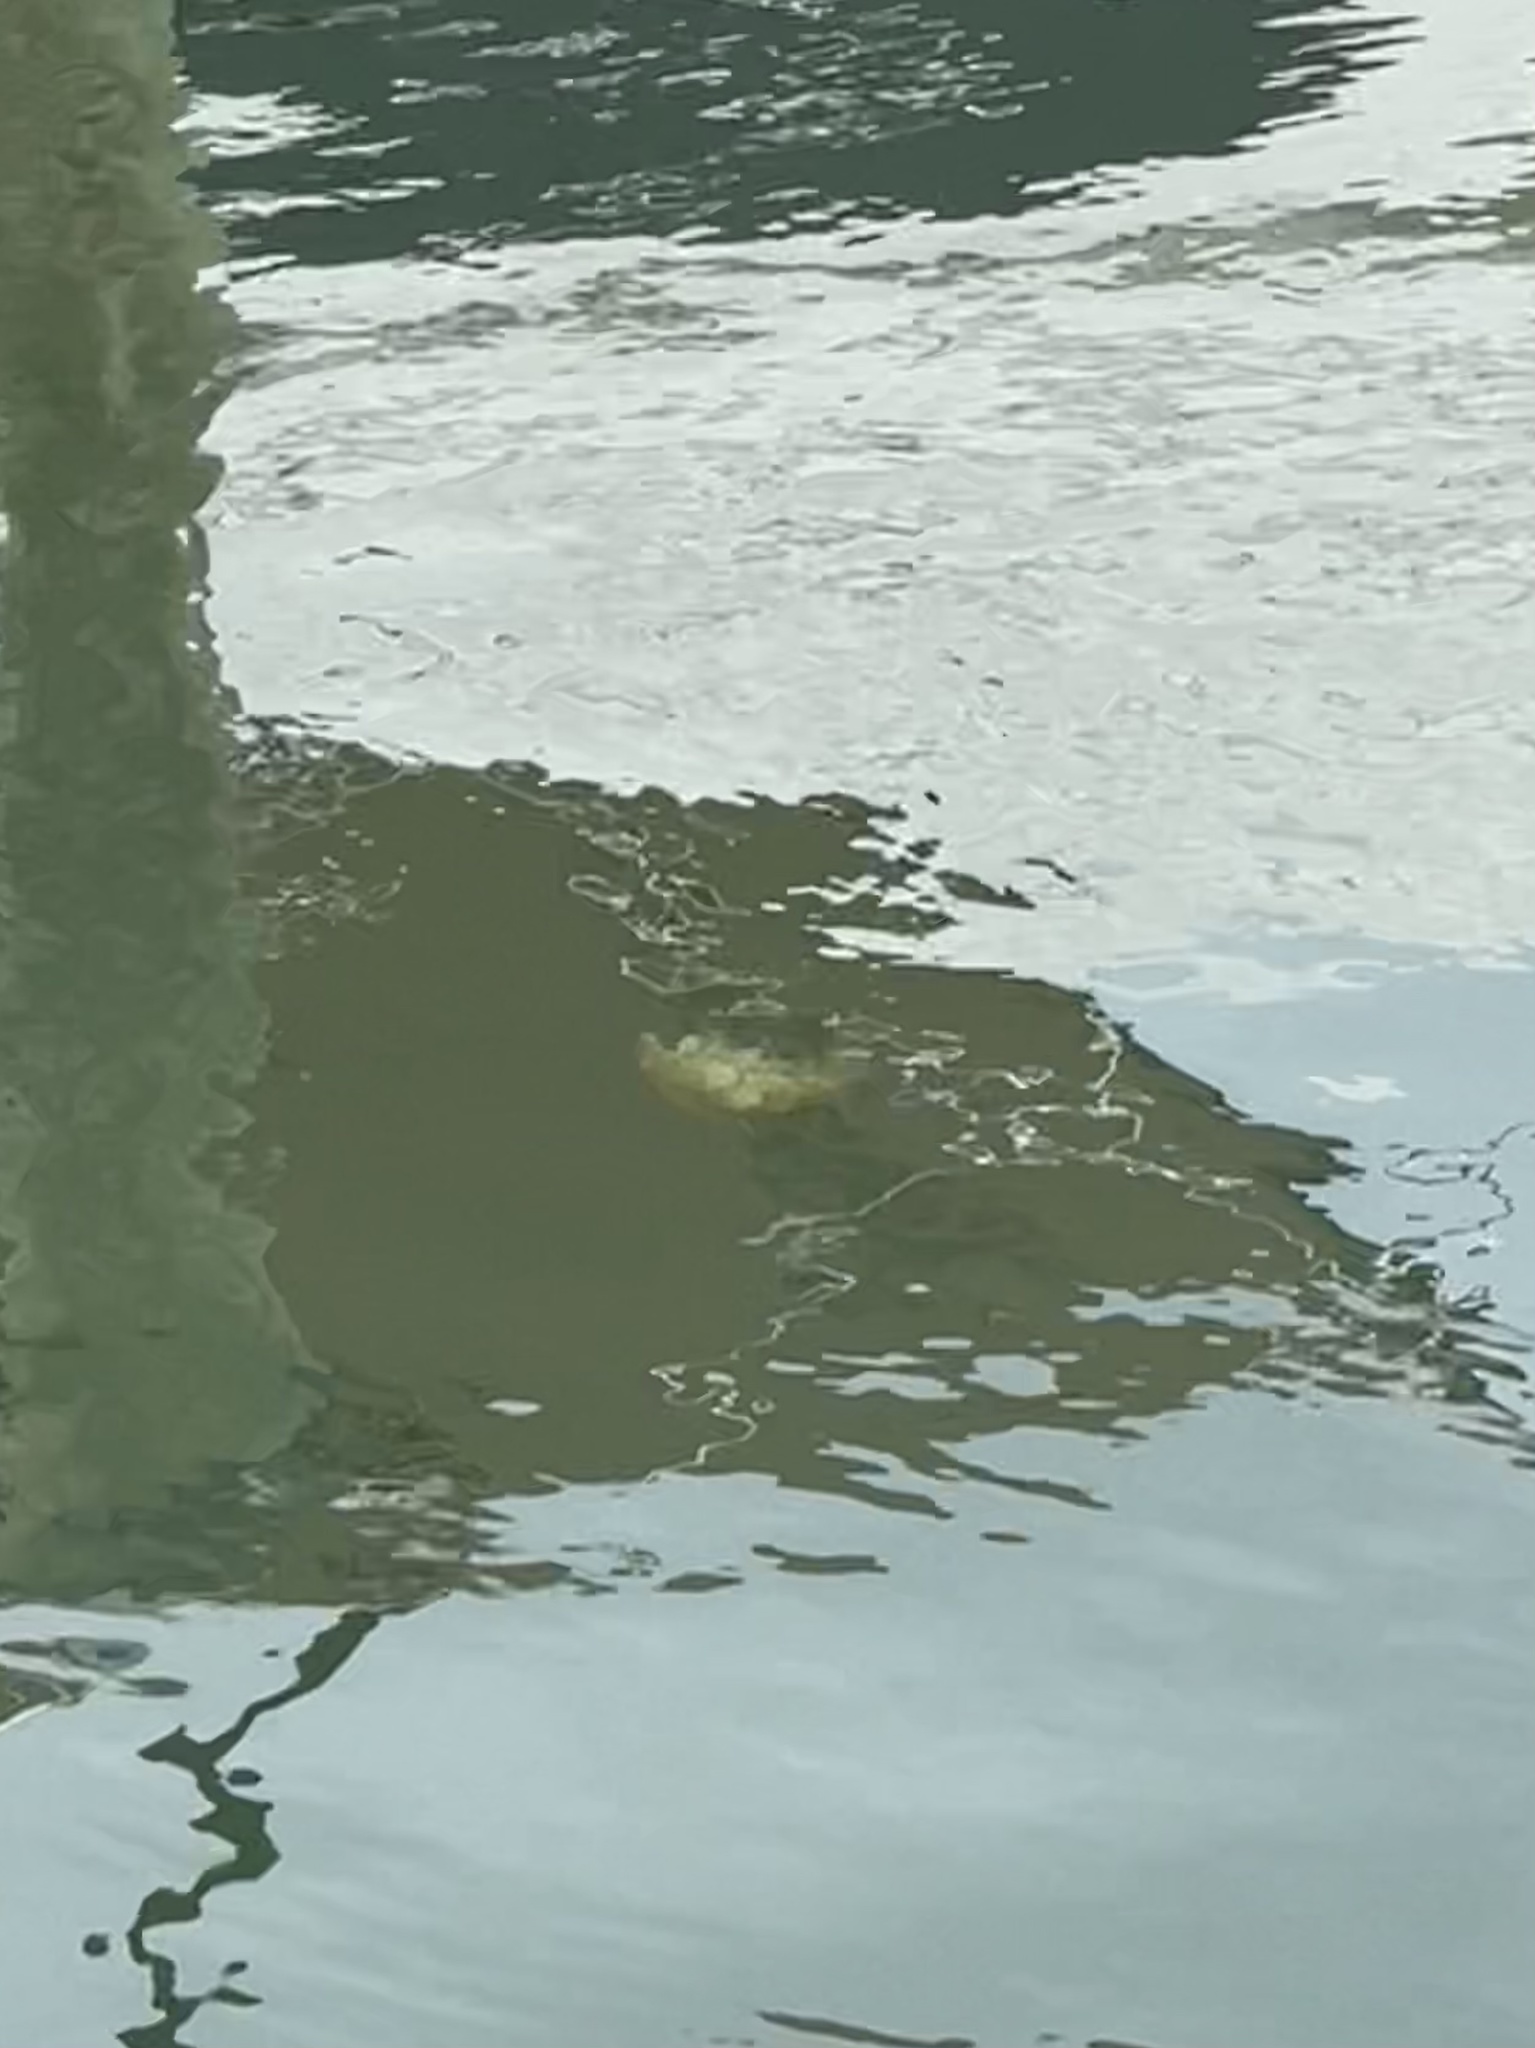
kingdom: Animalia
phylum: Cnidaria
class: Scyphozoa
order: Rhizostomeae
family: Cassiopeidae
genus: Cassiopea
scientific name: Cassiopea andromeda
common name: Upside-down jellyfish
